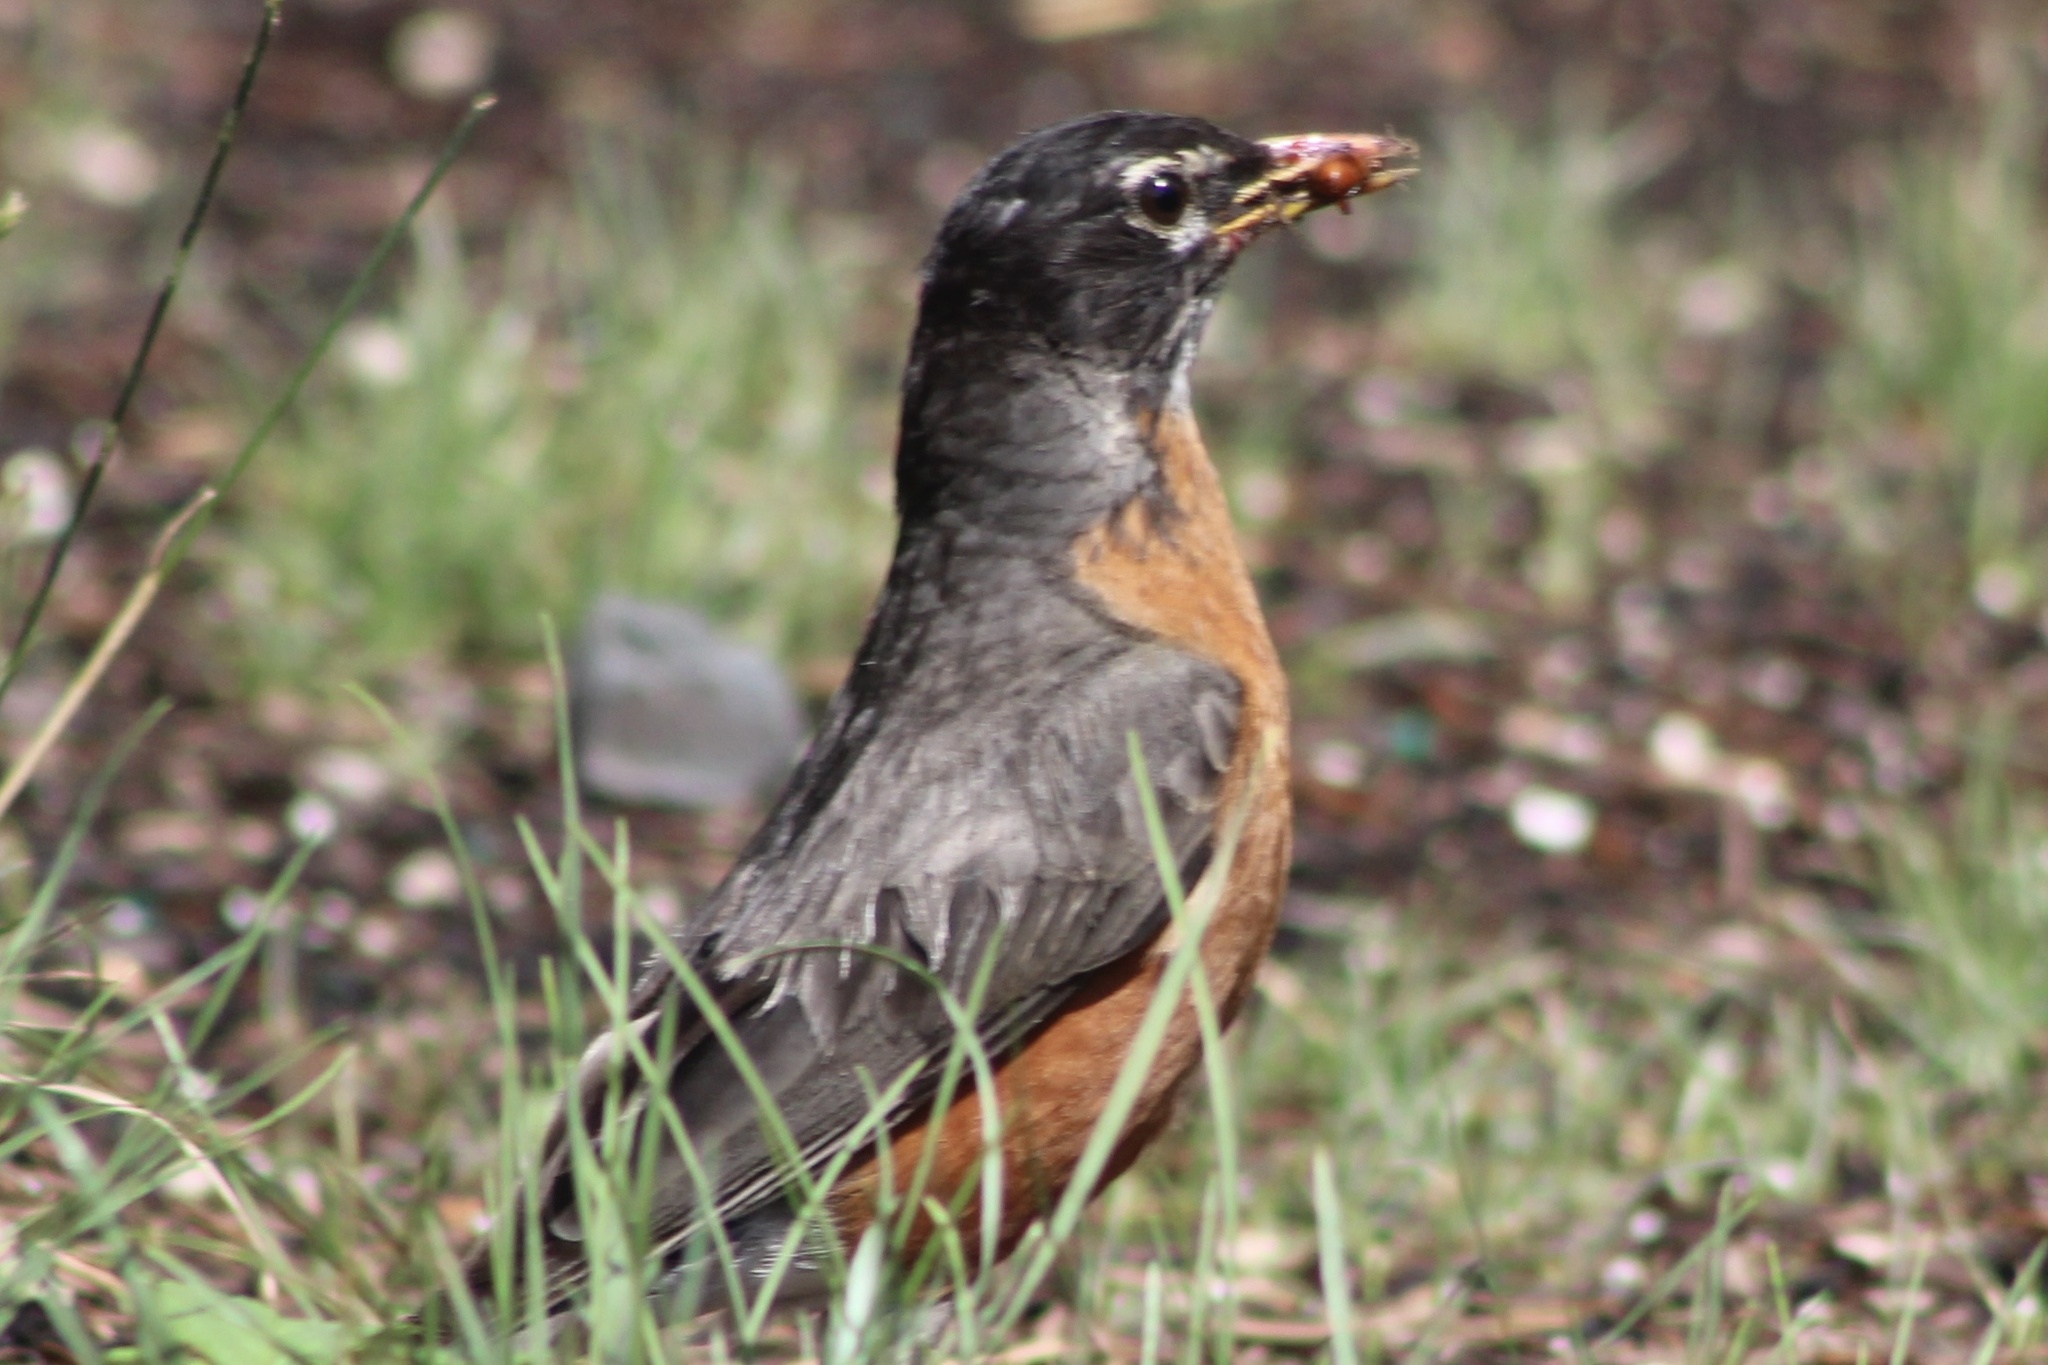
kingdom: Animalia
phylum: Chordata
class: Aves
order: Passeriformes
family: Turdidae
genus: Turdus
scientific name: Turdus migratorius
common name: American robin
